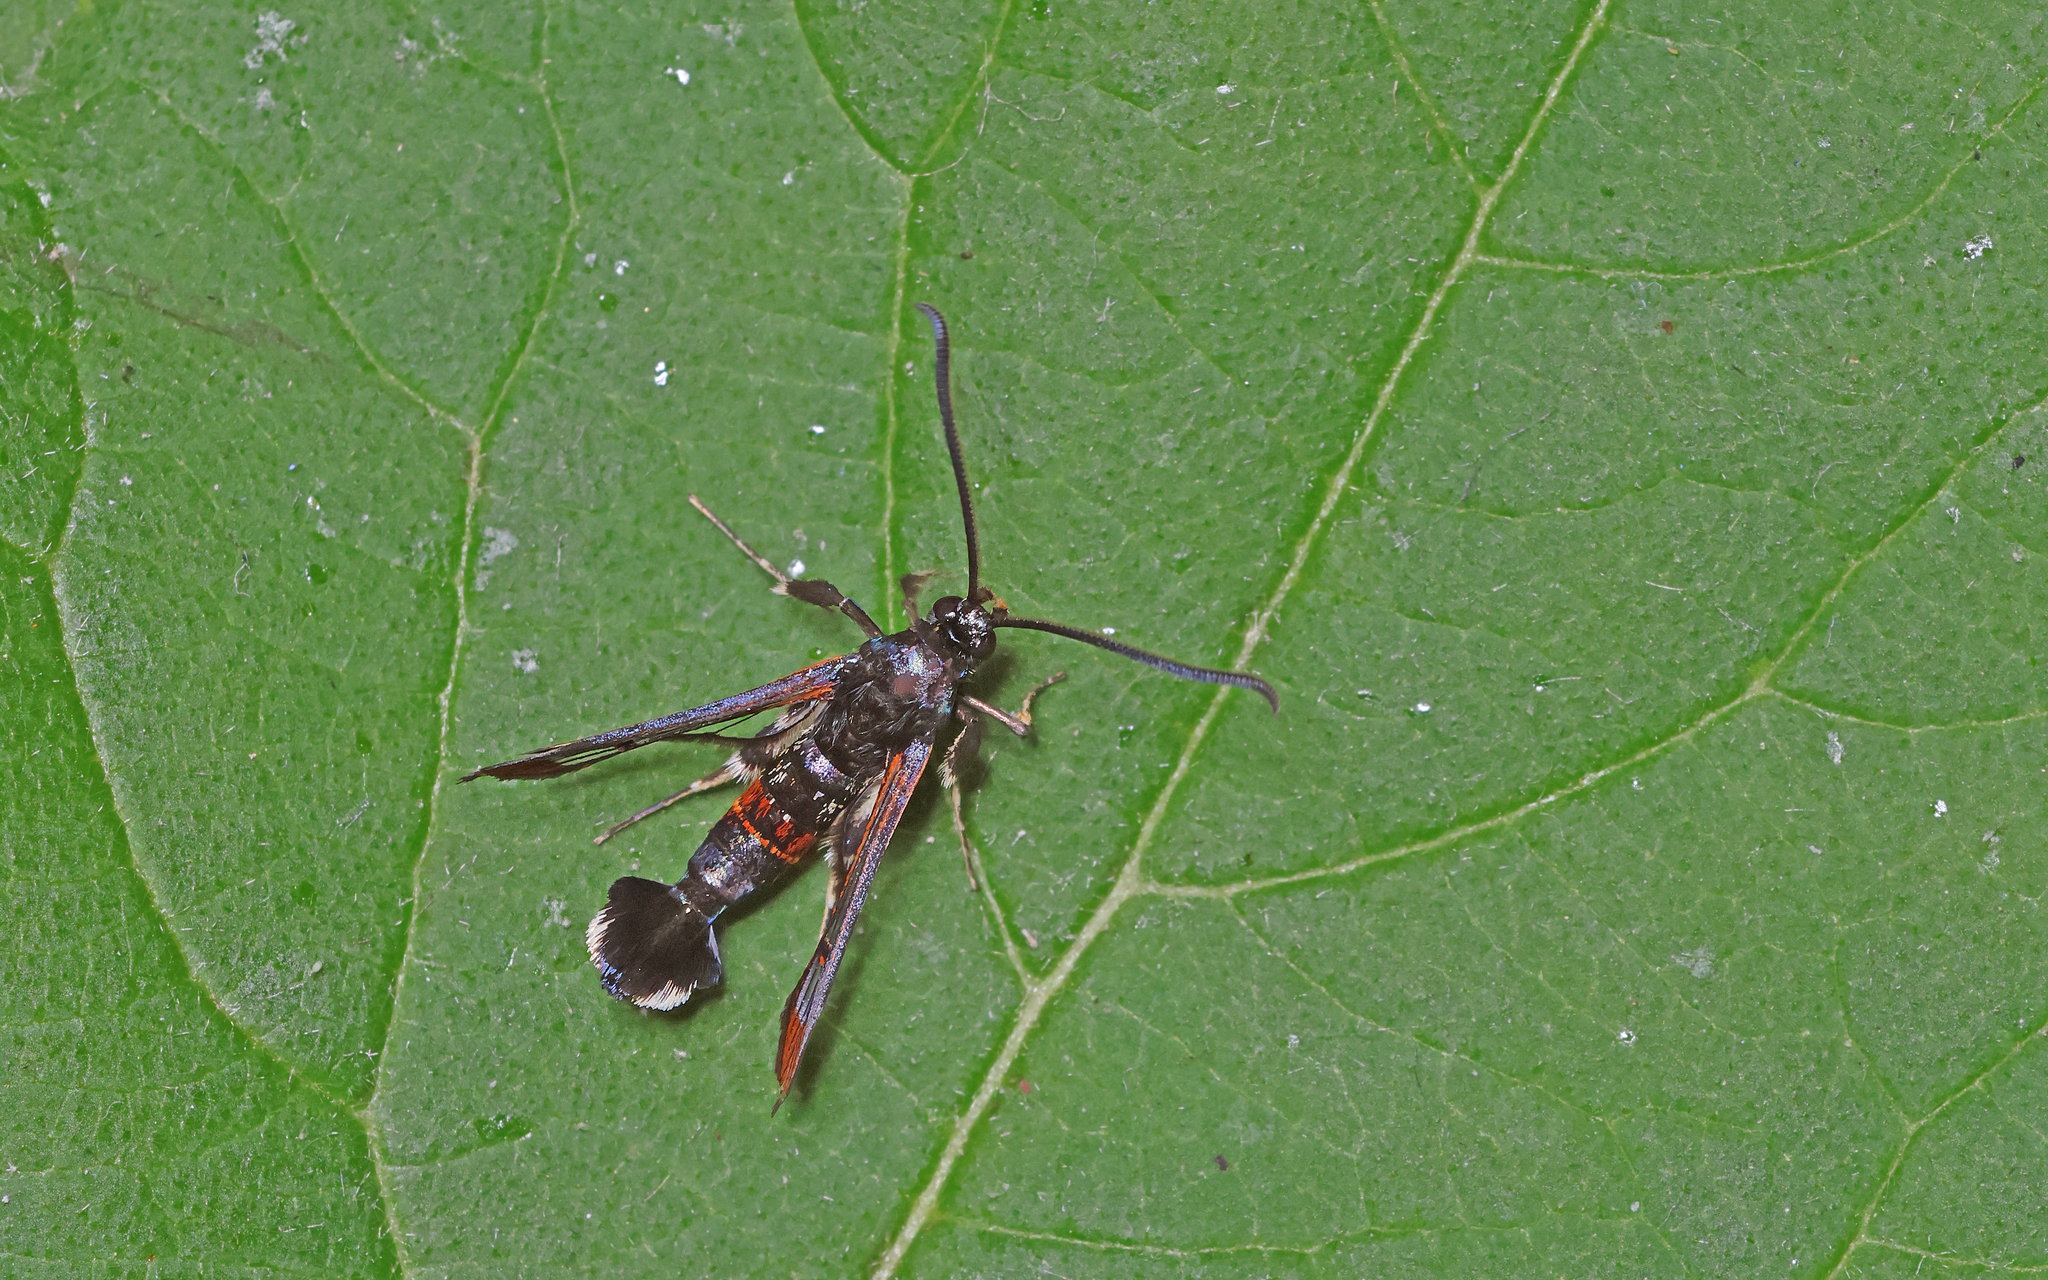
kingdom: Animalia
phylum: Arthropoda
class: Insecta
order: Lepidoptera
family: Sesiidae
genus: Synanthedon
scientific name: Synanthedon formicaeformis
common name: Red-tipped clearwing
